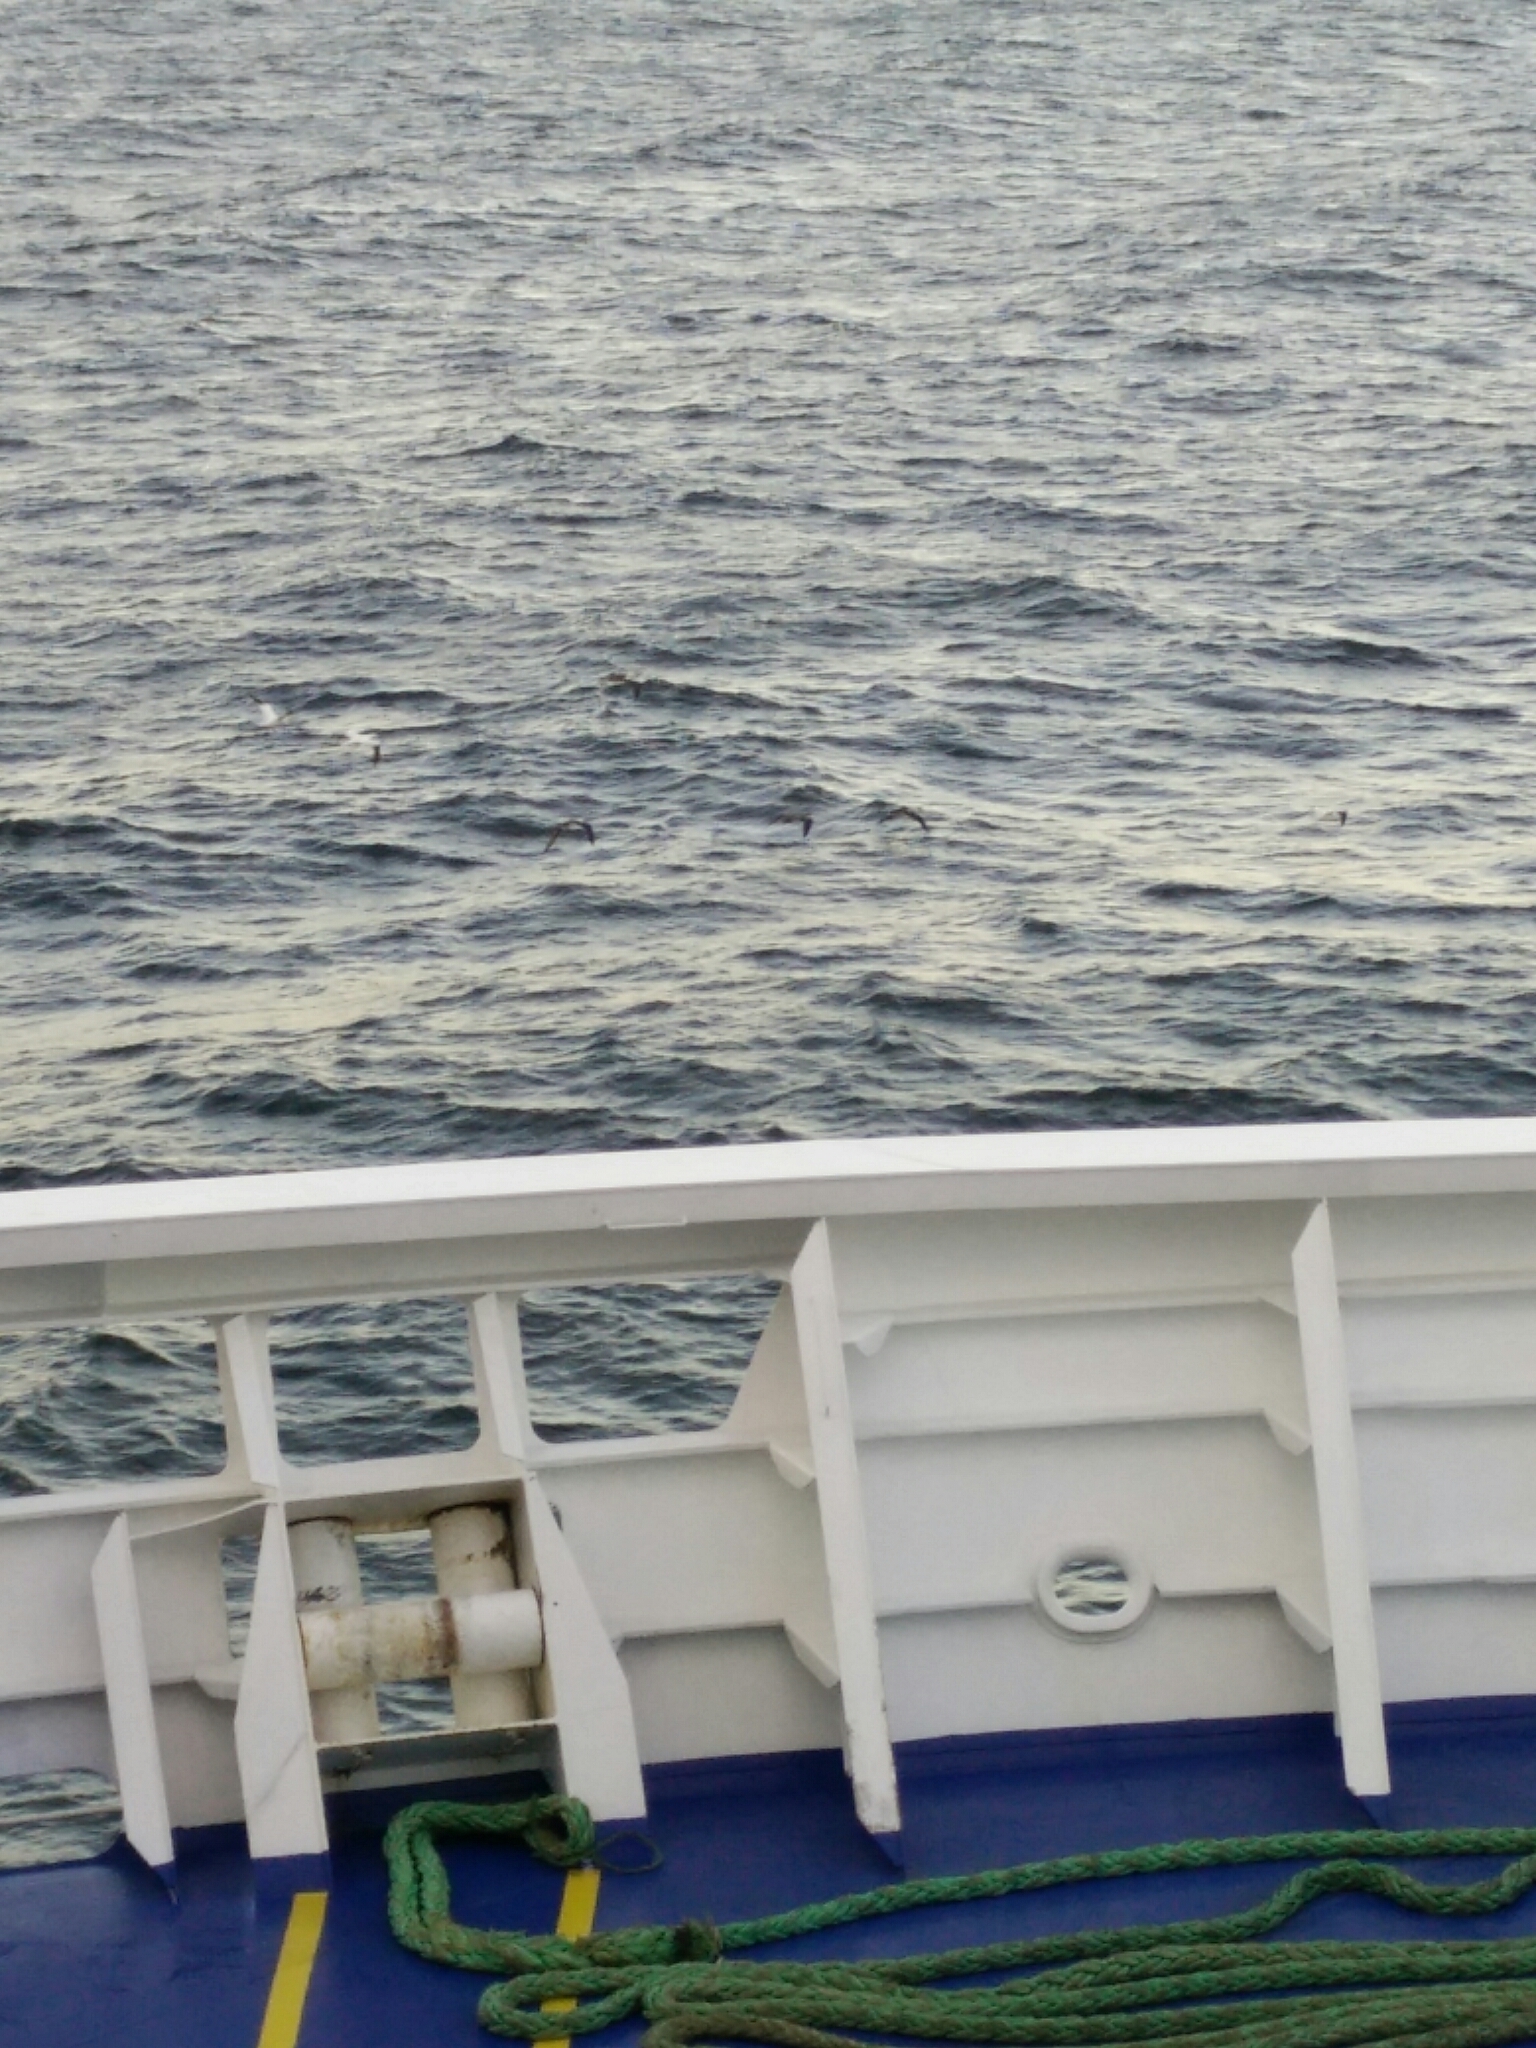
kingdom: Animalia
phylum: Chordata
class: Aves
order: Suliformes
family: Sulidae
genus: Morus
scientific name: Morus bassanus
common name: Northern gannet
